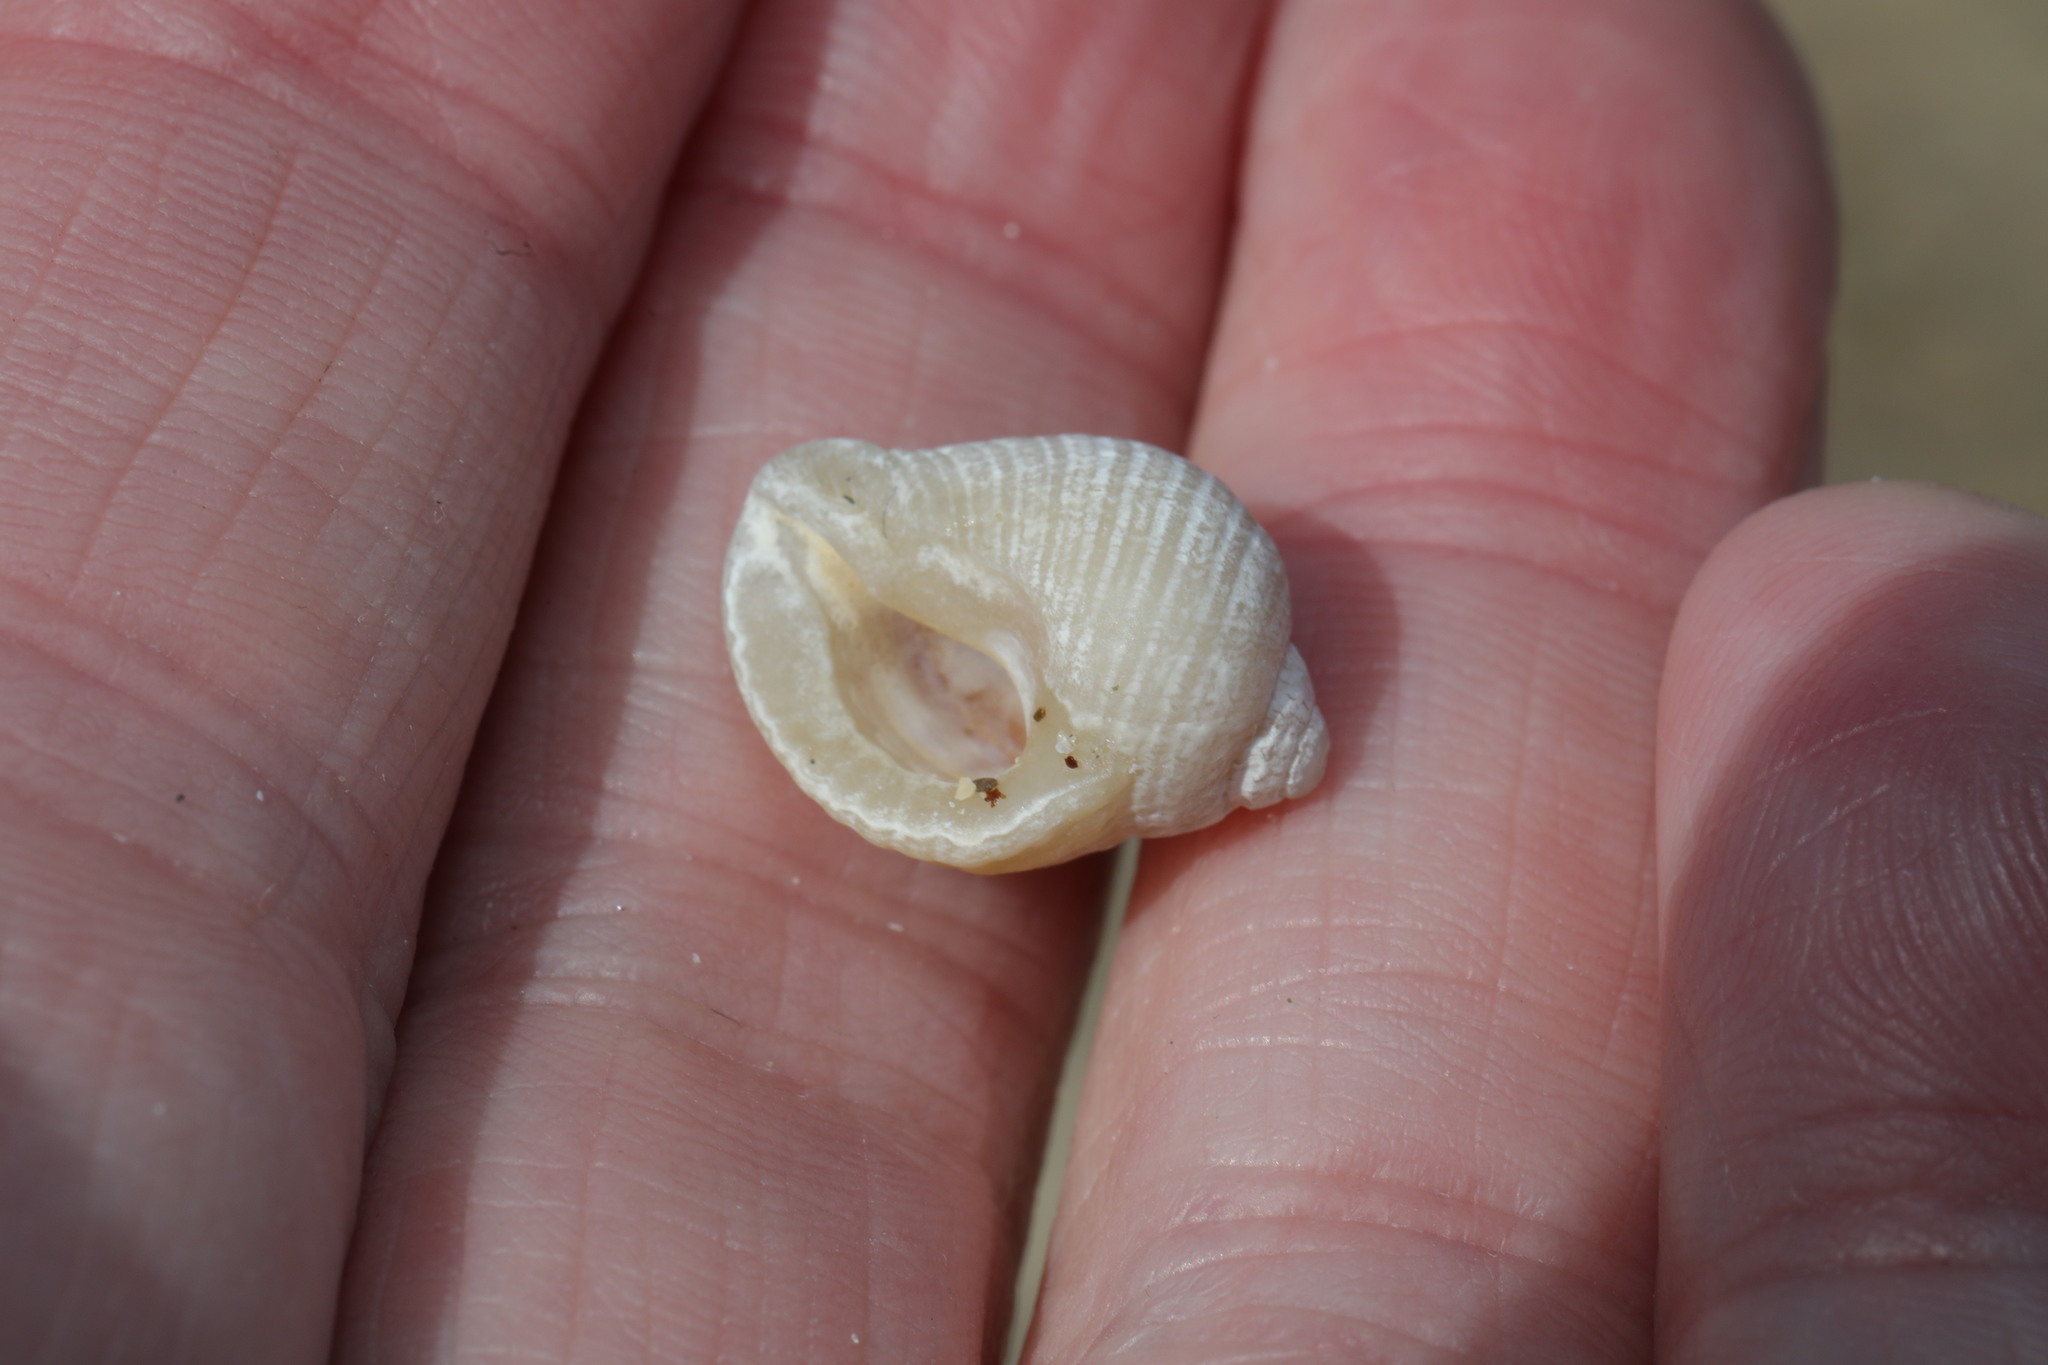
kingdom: Animalia
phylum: Mollusca
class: Gastropoda
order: Neogastropoda
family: Muricidae
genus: Nucella
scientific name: Nucella lapillus
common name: Dog whelk
